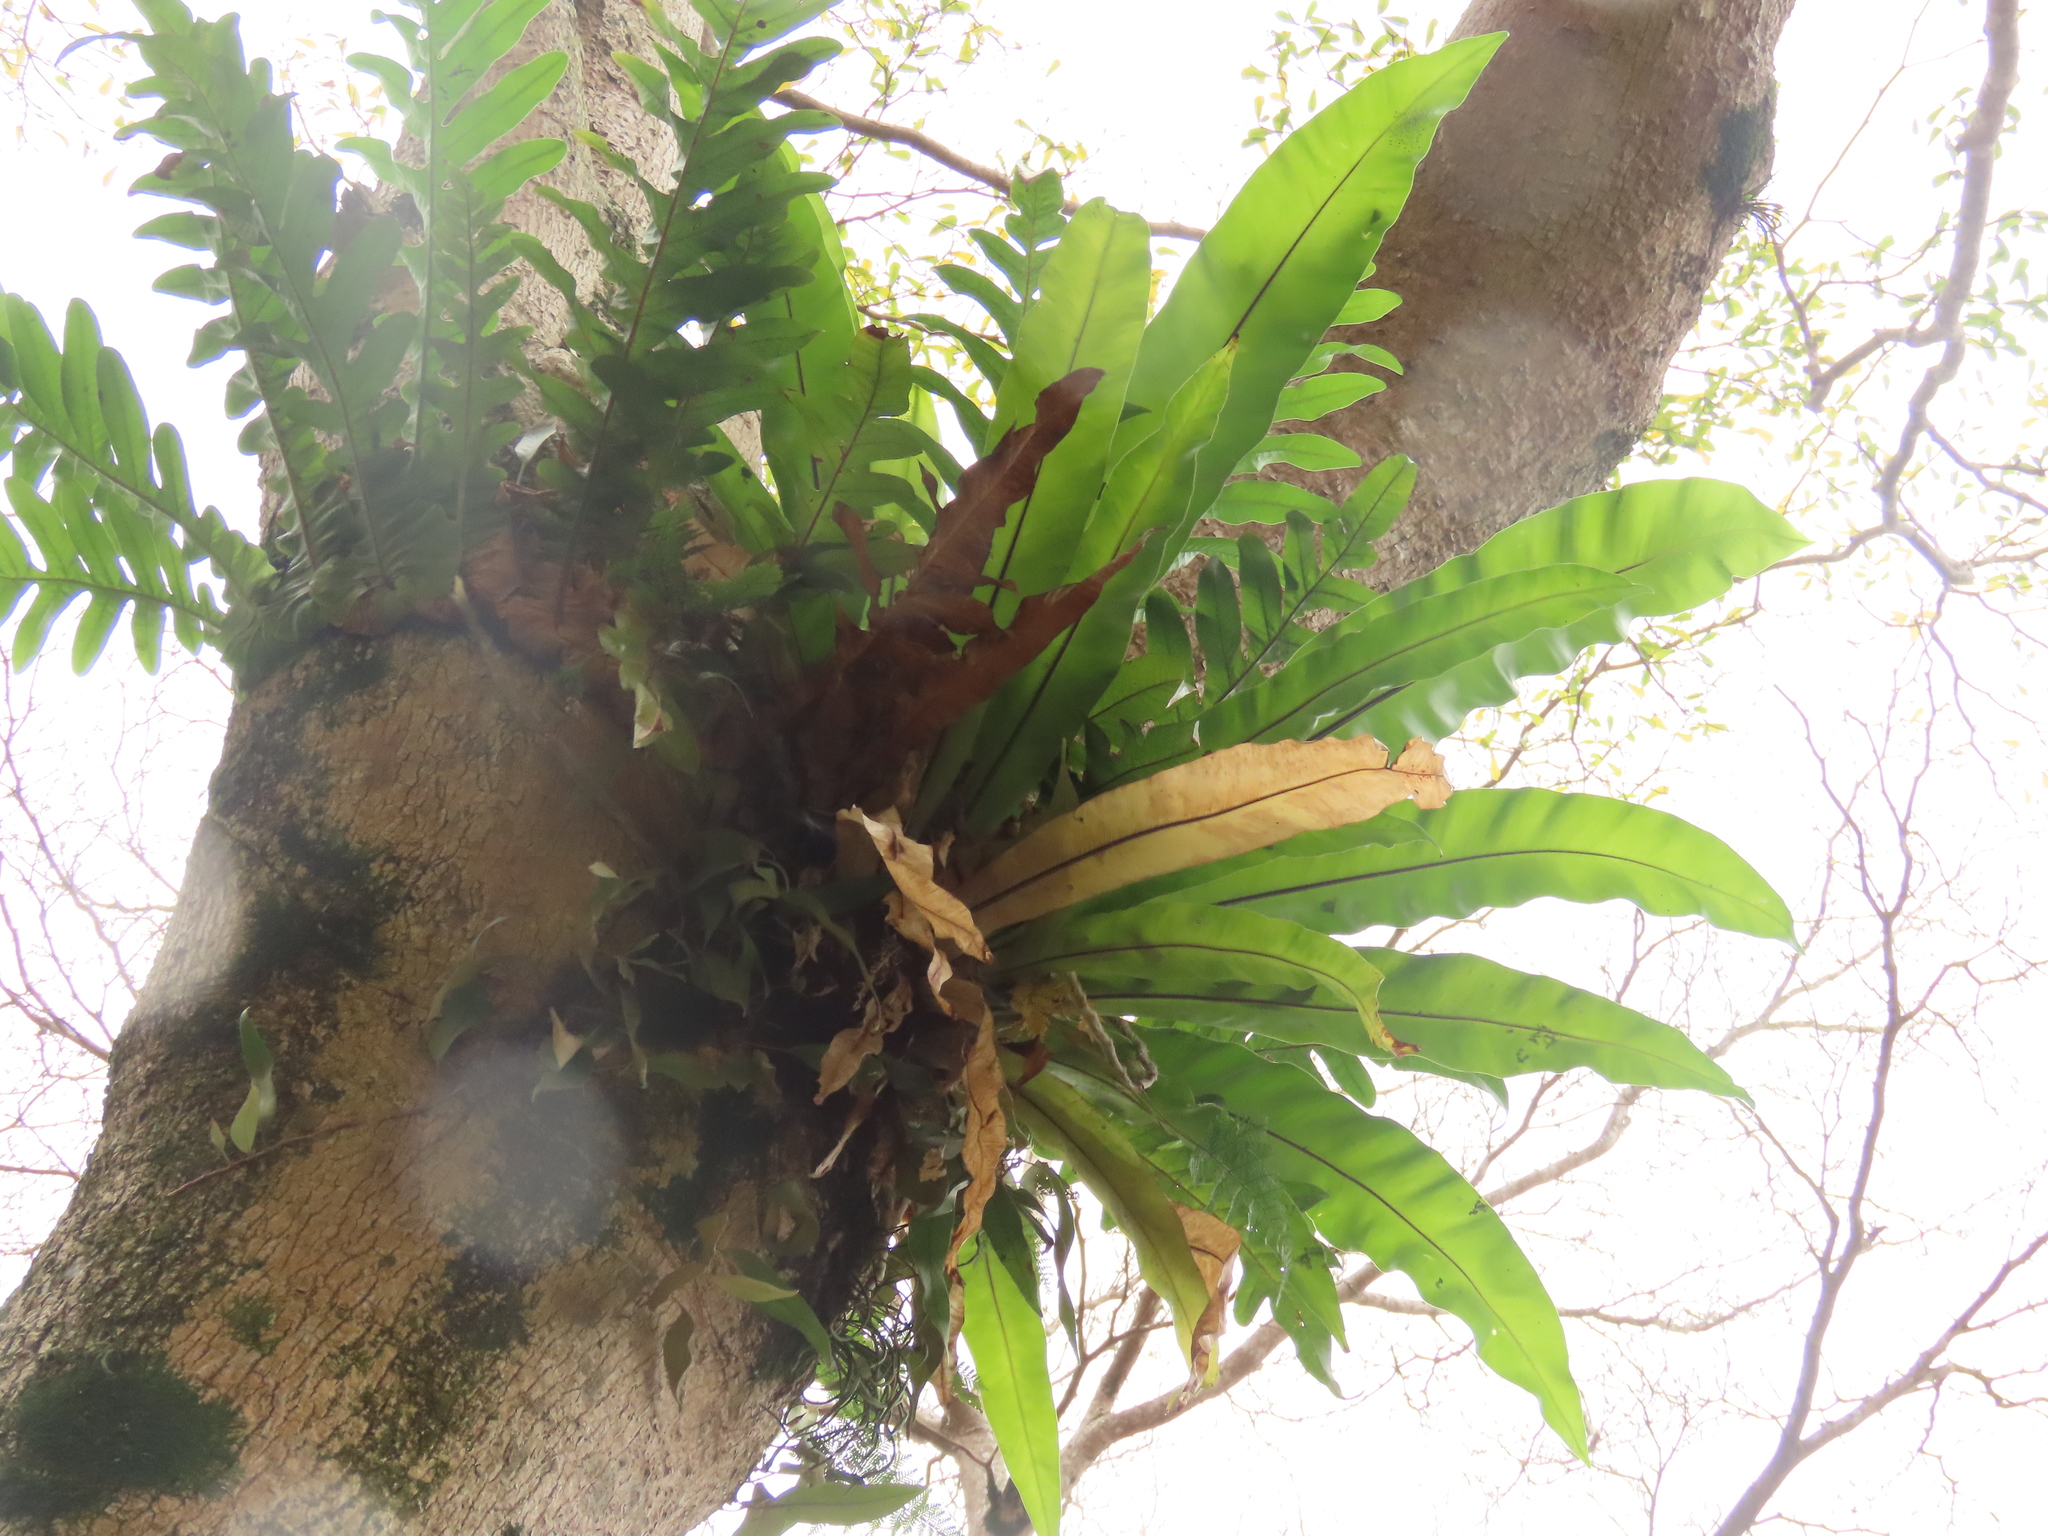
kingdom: Plantae
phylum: Tracheophyta
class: Polypodiopsida
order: Polypodiales
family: Polypodiaceae
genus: Drynaria
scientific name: Drynaria coronans
